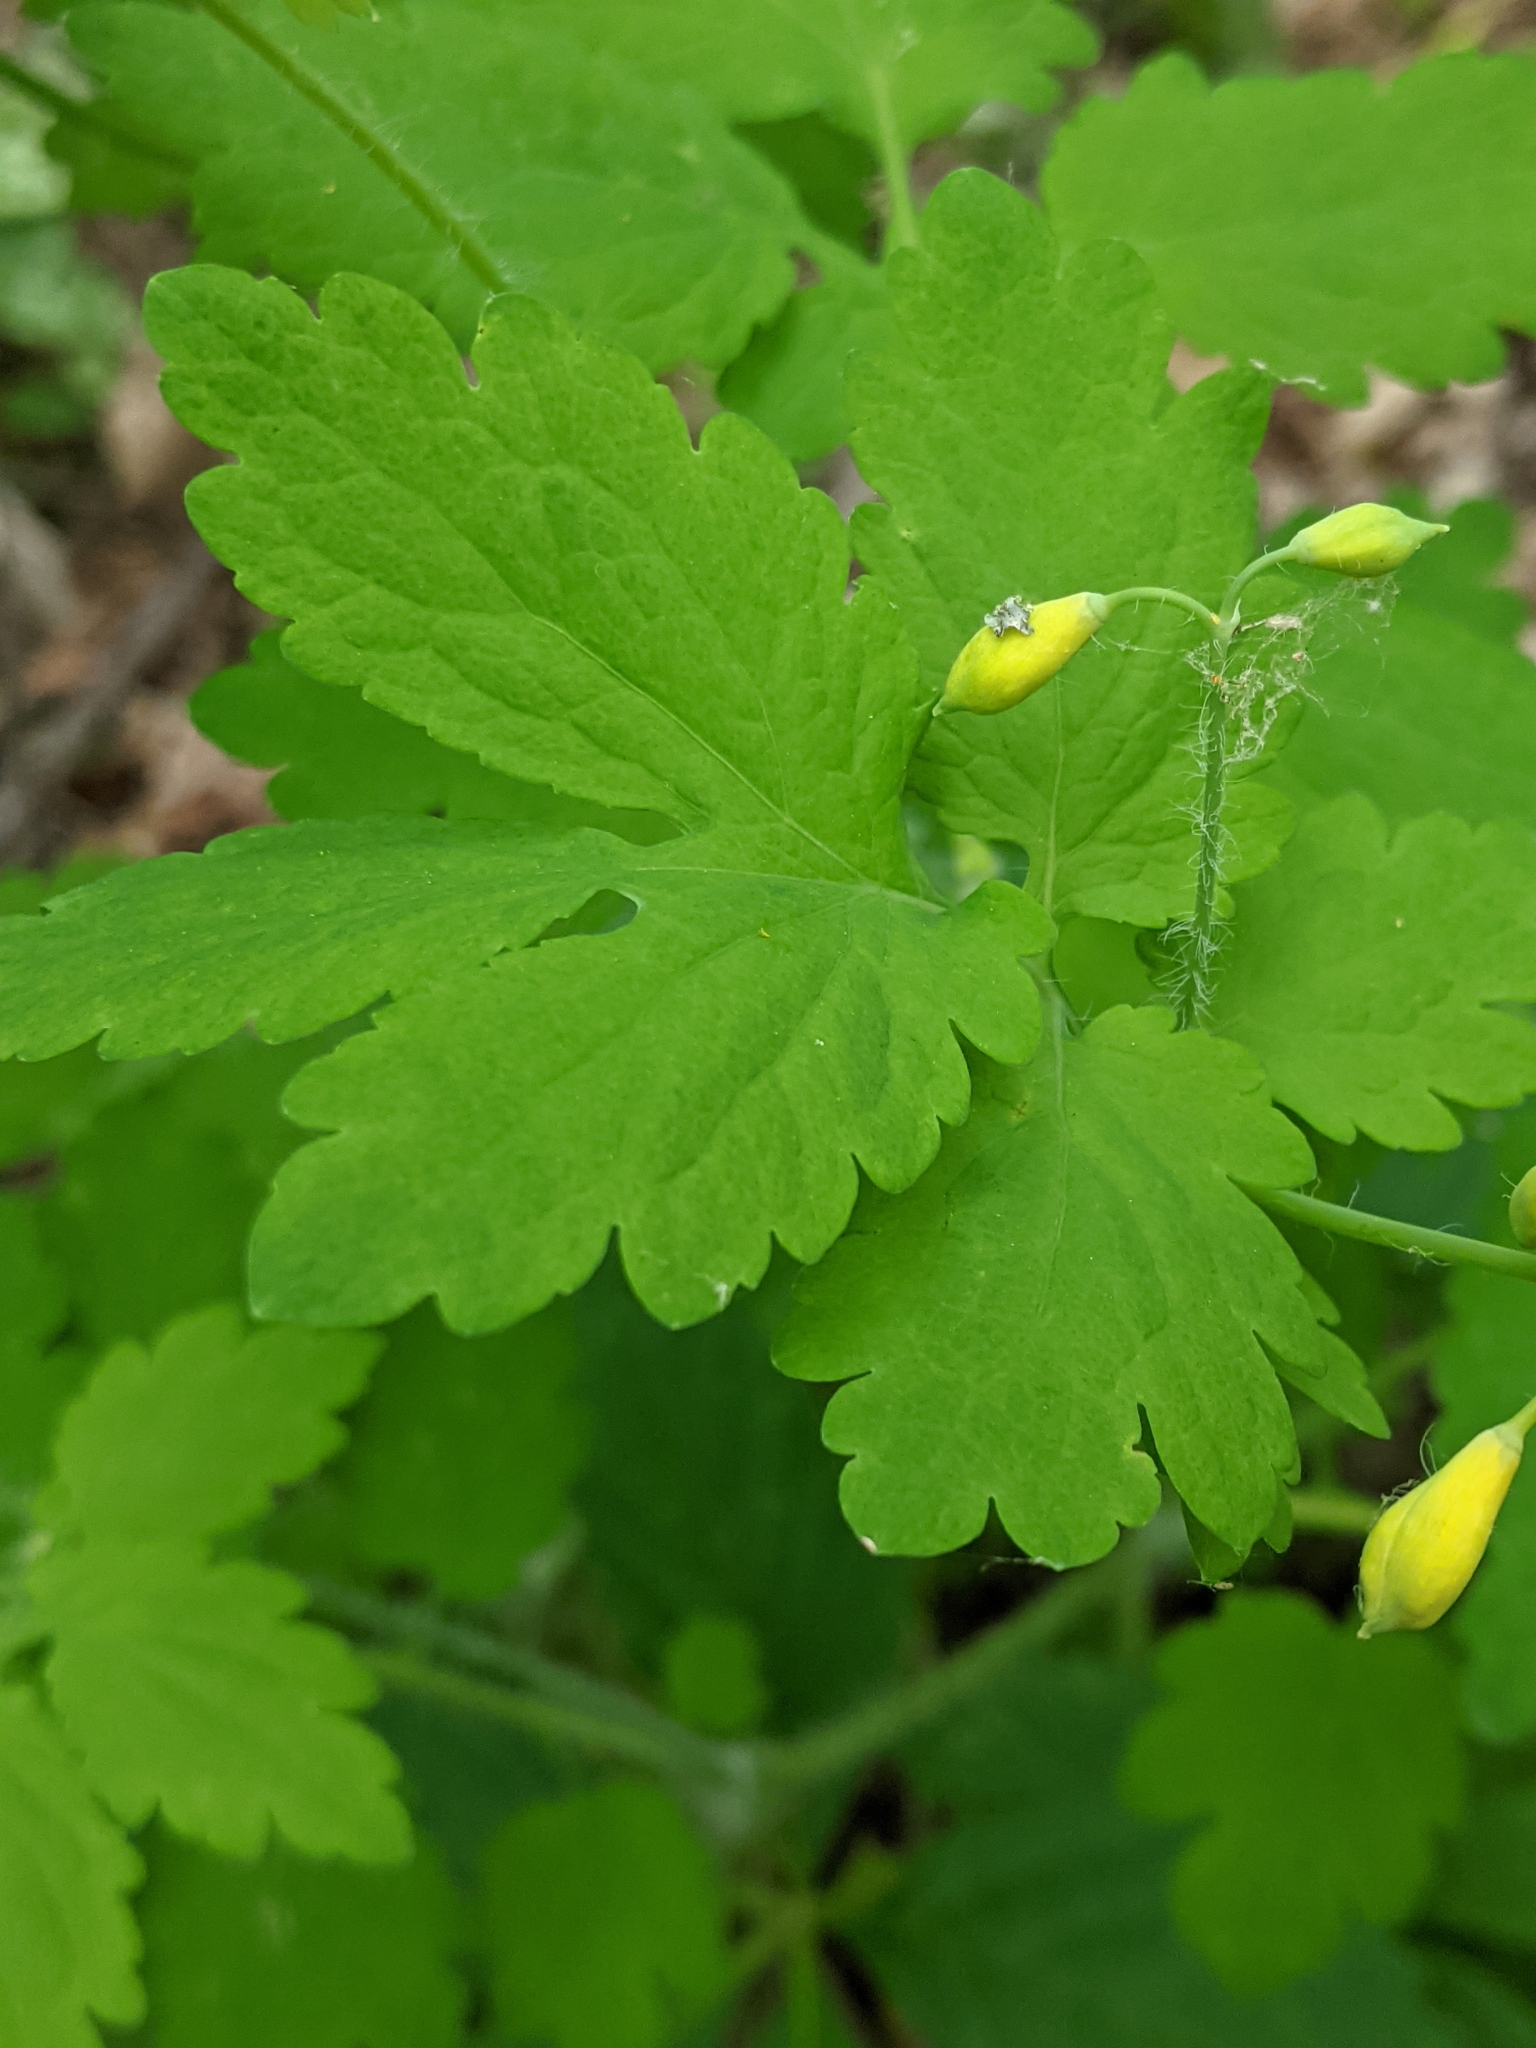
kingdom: Plantae
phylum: Tracheophyta
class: Magnoliopsida
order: Ranunculales
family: Papaveraceae
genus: Chelidonium
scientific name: Chelidonium majus
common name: Greater celandine
